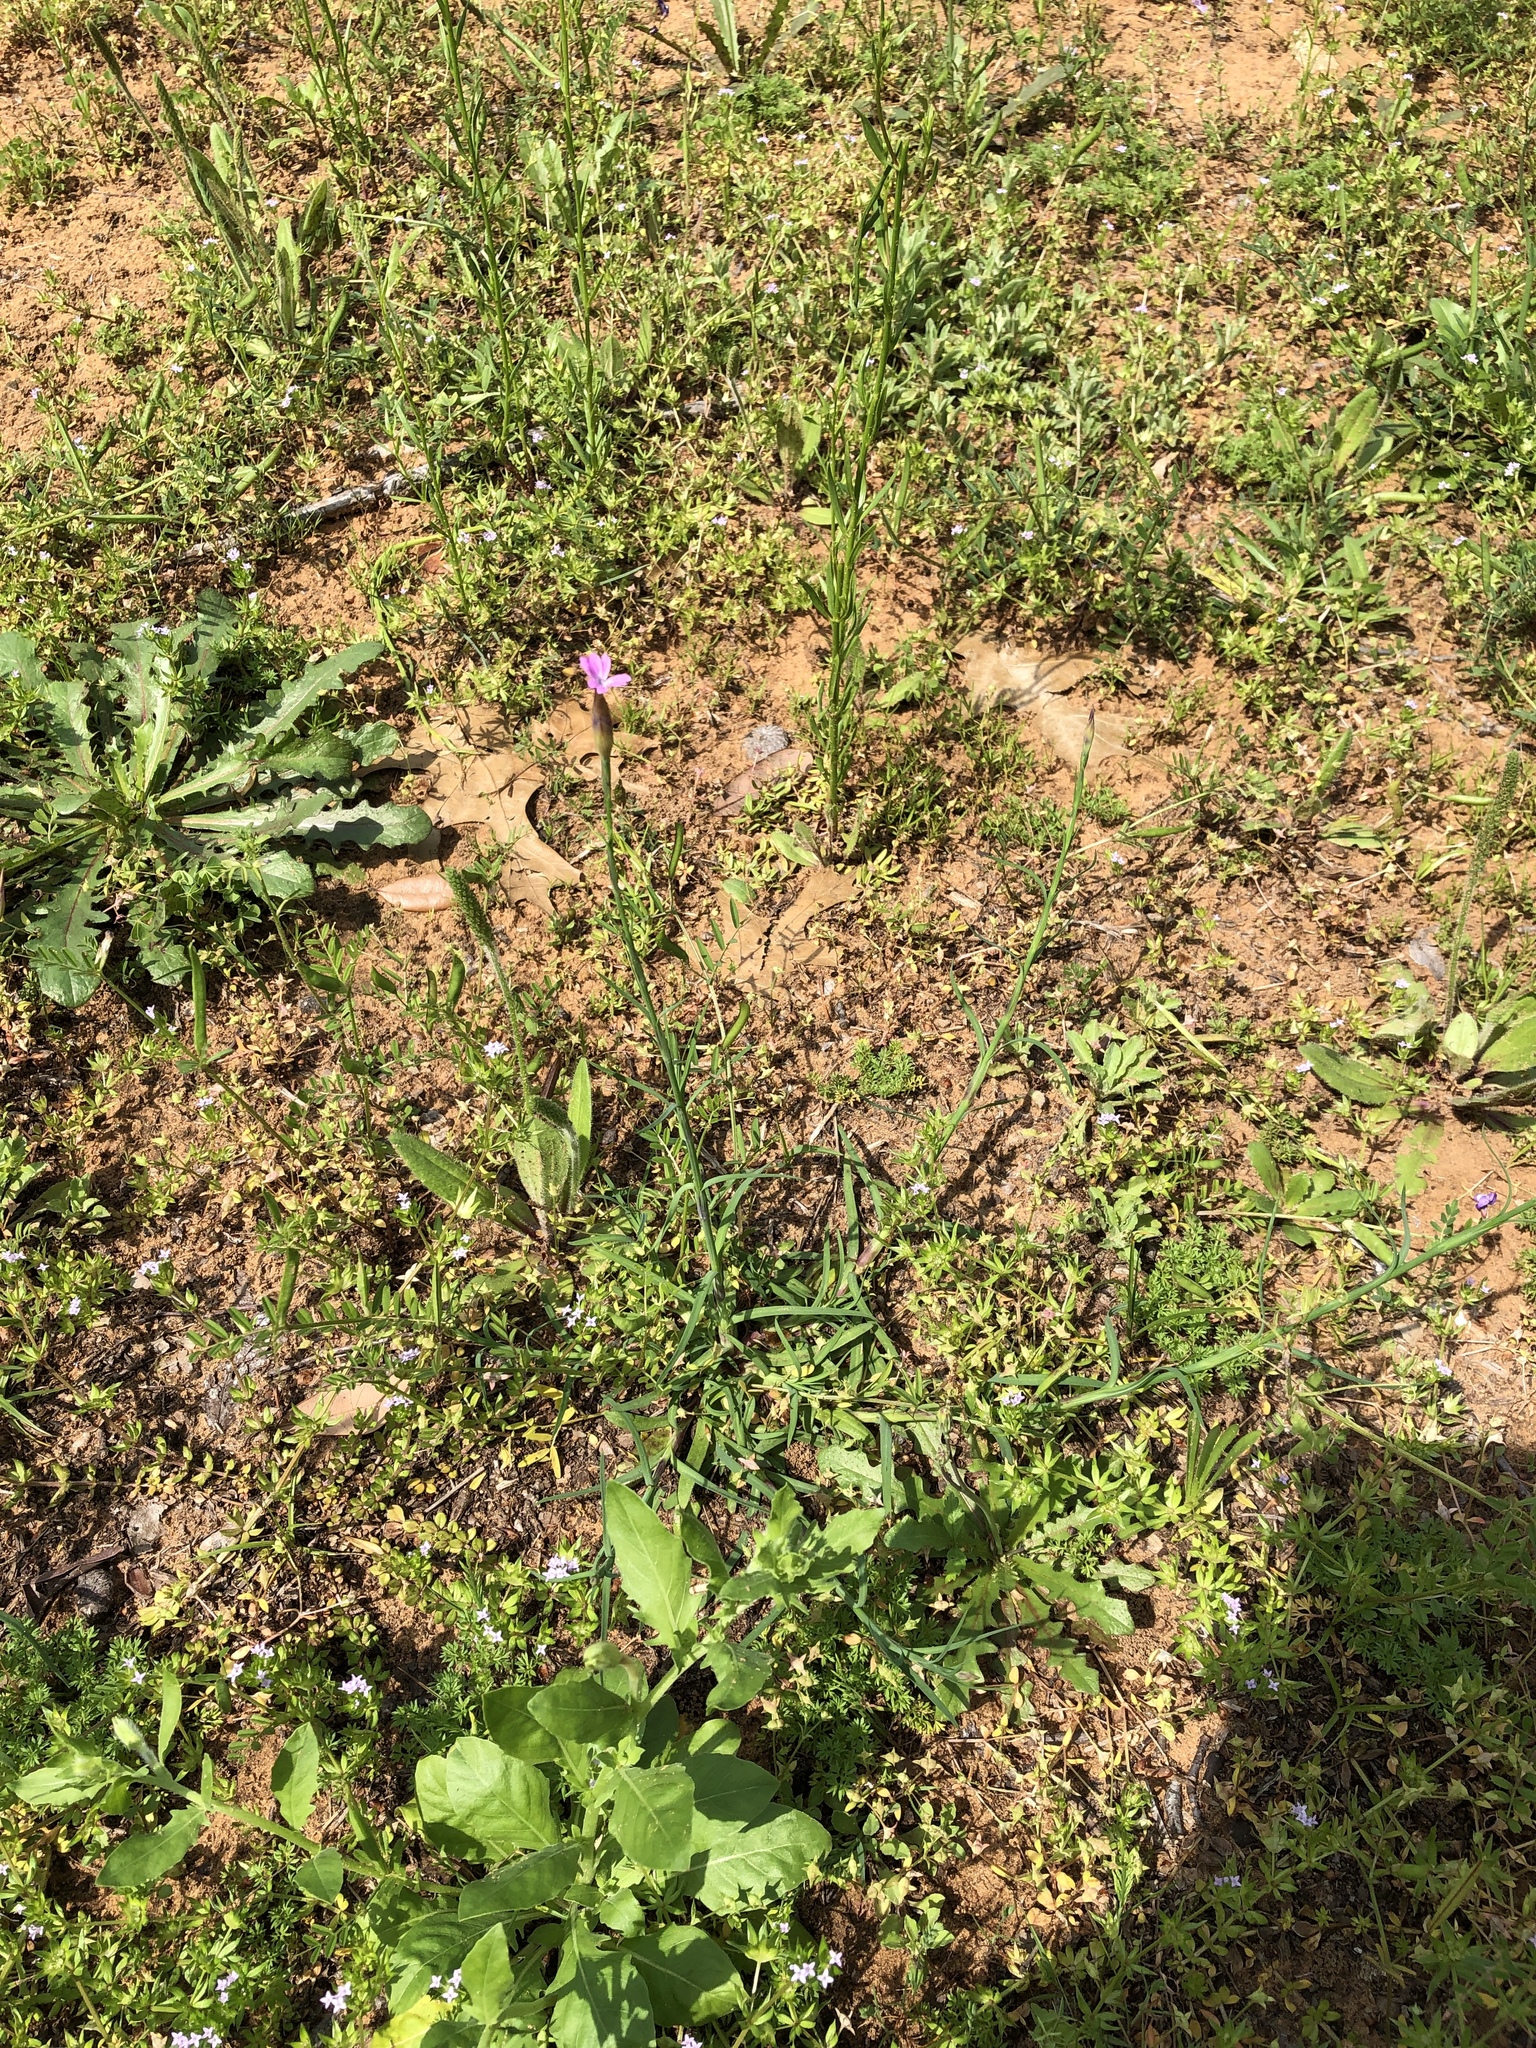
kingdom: Plantae
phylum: Tracheophyta
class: Magnoliopsida
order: Caryophyllales
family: Caryophyllaceae
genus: Petrorhagia
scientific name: Petrorhagia dubia
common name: Hairypink
